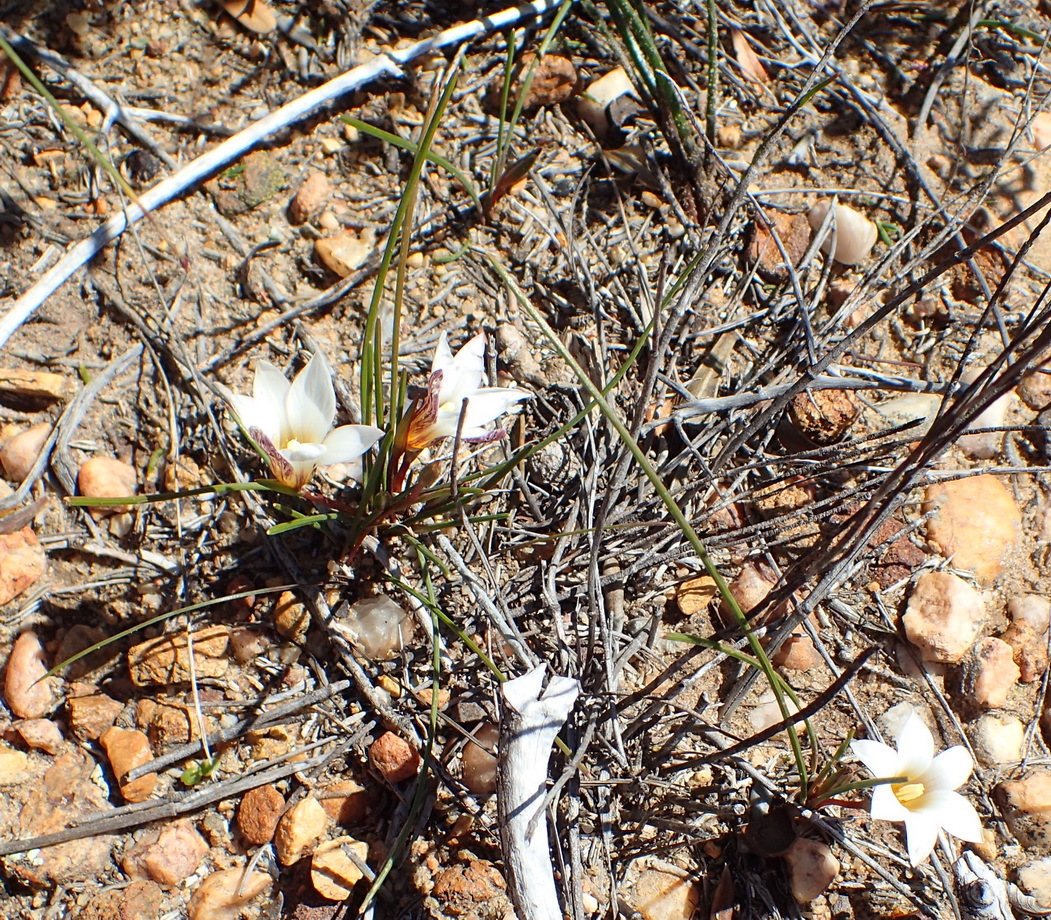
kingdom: Plantae
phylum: Tracheophyta
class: Liliopsida
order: Asparagales
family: Iridaceae
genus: Romulea
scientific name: Romulea toximontana
